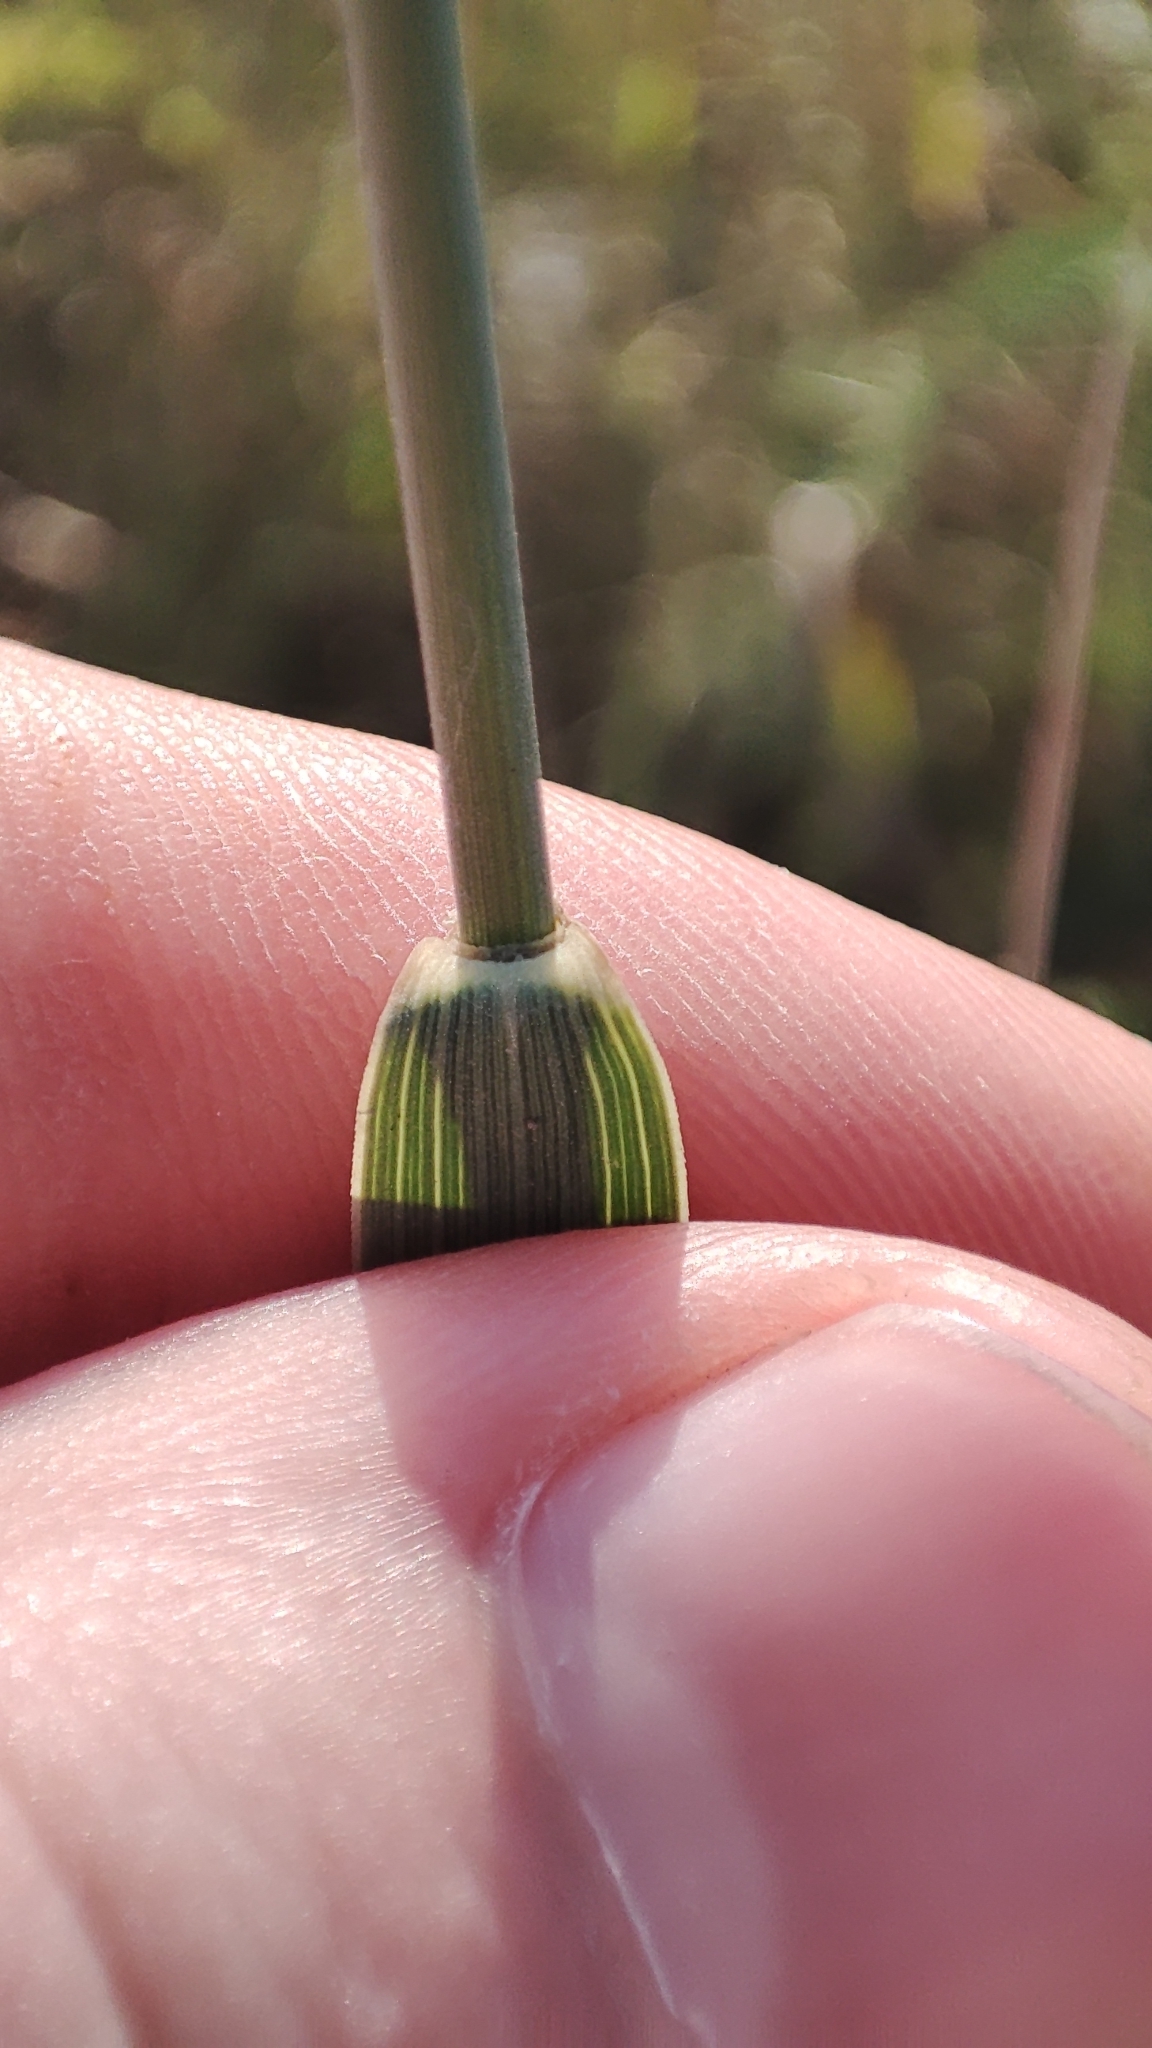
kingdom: Plantae
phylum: Tracheophyta
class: Liliopsida
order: Poales
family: Poaceae
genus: Elymus
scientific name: Elymus repens
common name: Quackgrass
